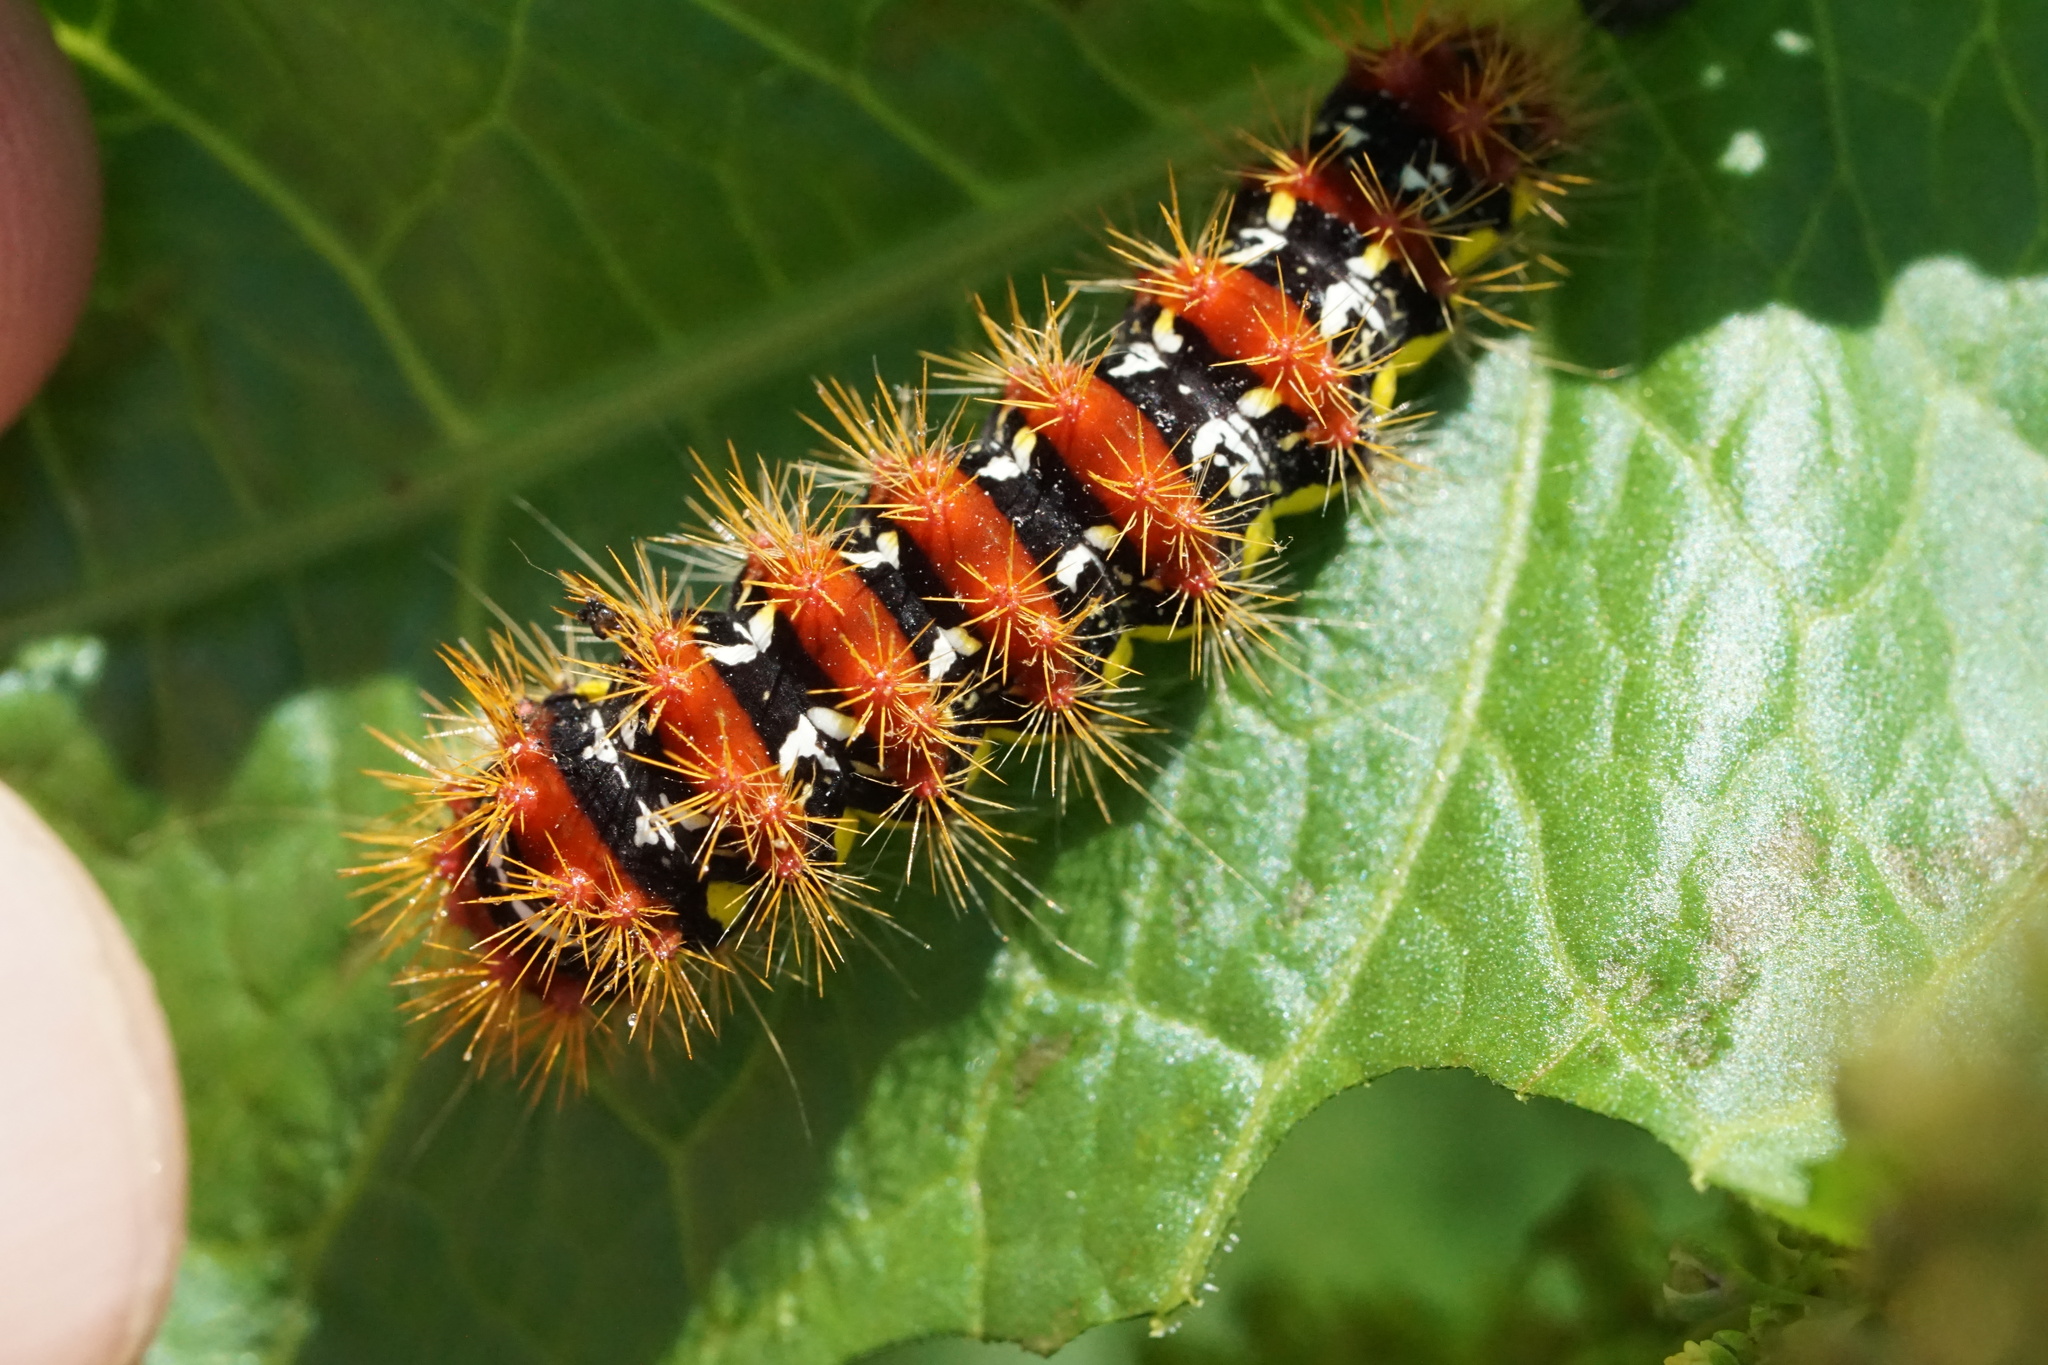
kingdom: Animalia
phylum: Arthropoda
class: Insecta
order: Lepidoptera
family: Noctuidae
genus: Acronicta
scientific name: Acronicta oblinita
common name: Smeared dagger
